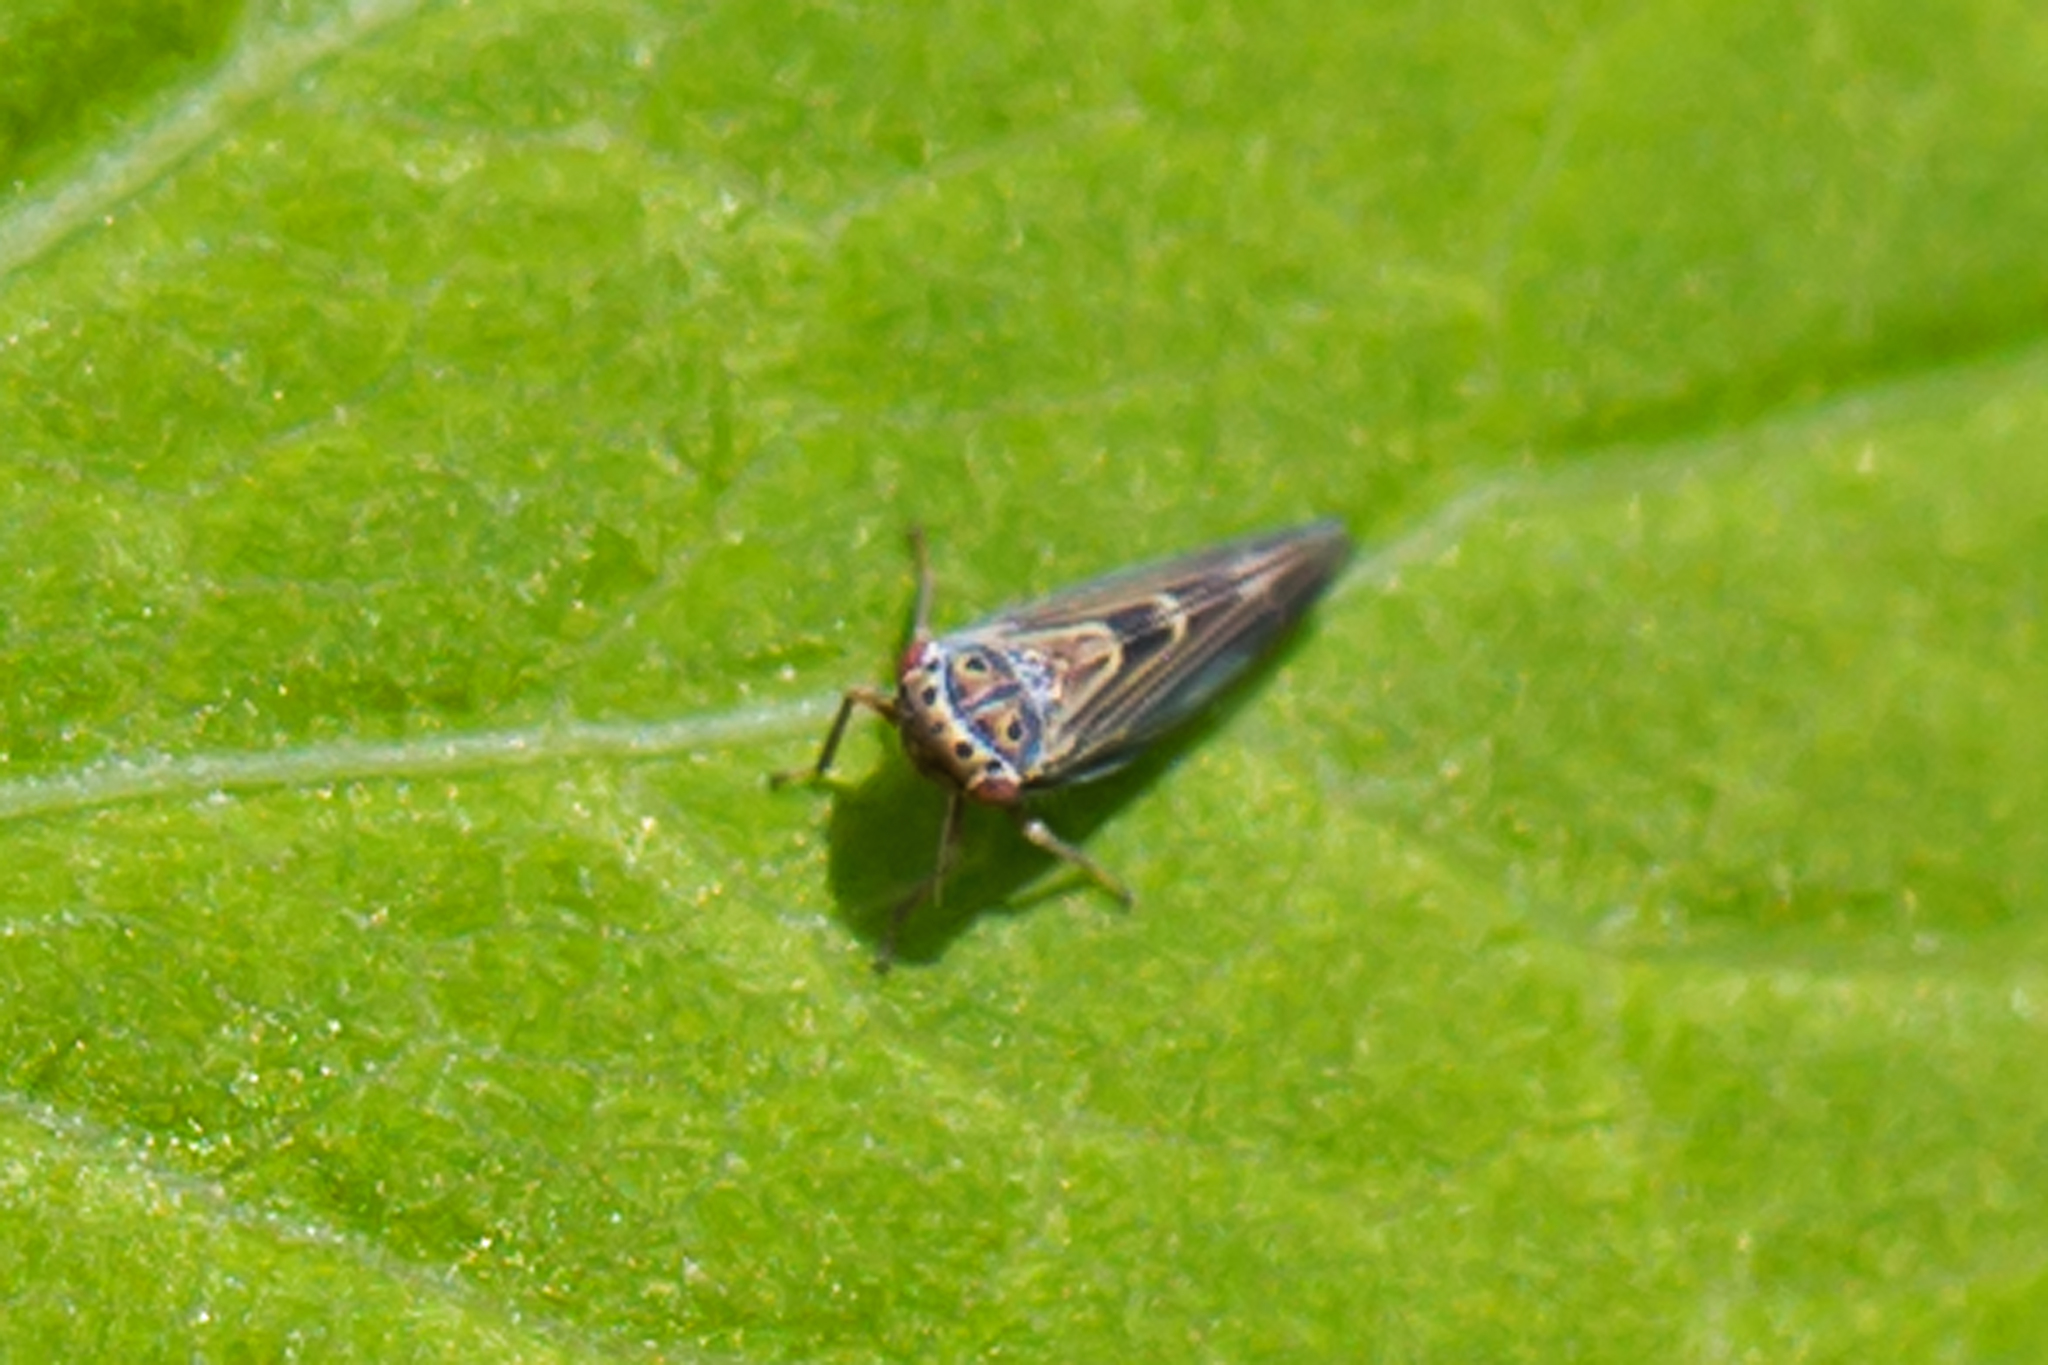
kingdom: Animalia
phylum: Arthropoda
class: Insecta
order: Hemiptera
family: Cicadellidae
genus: Agalliopsis
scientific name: Agalliopsis novella
